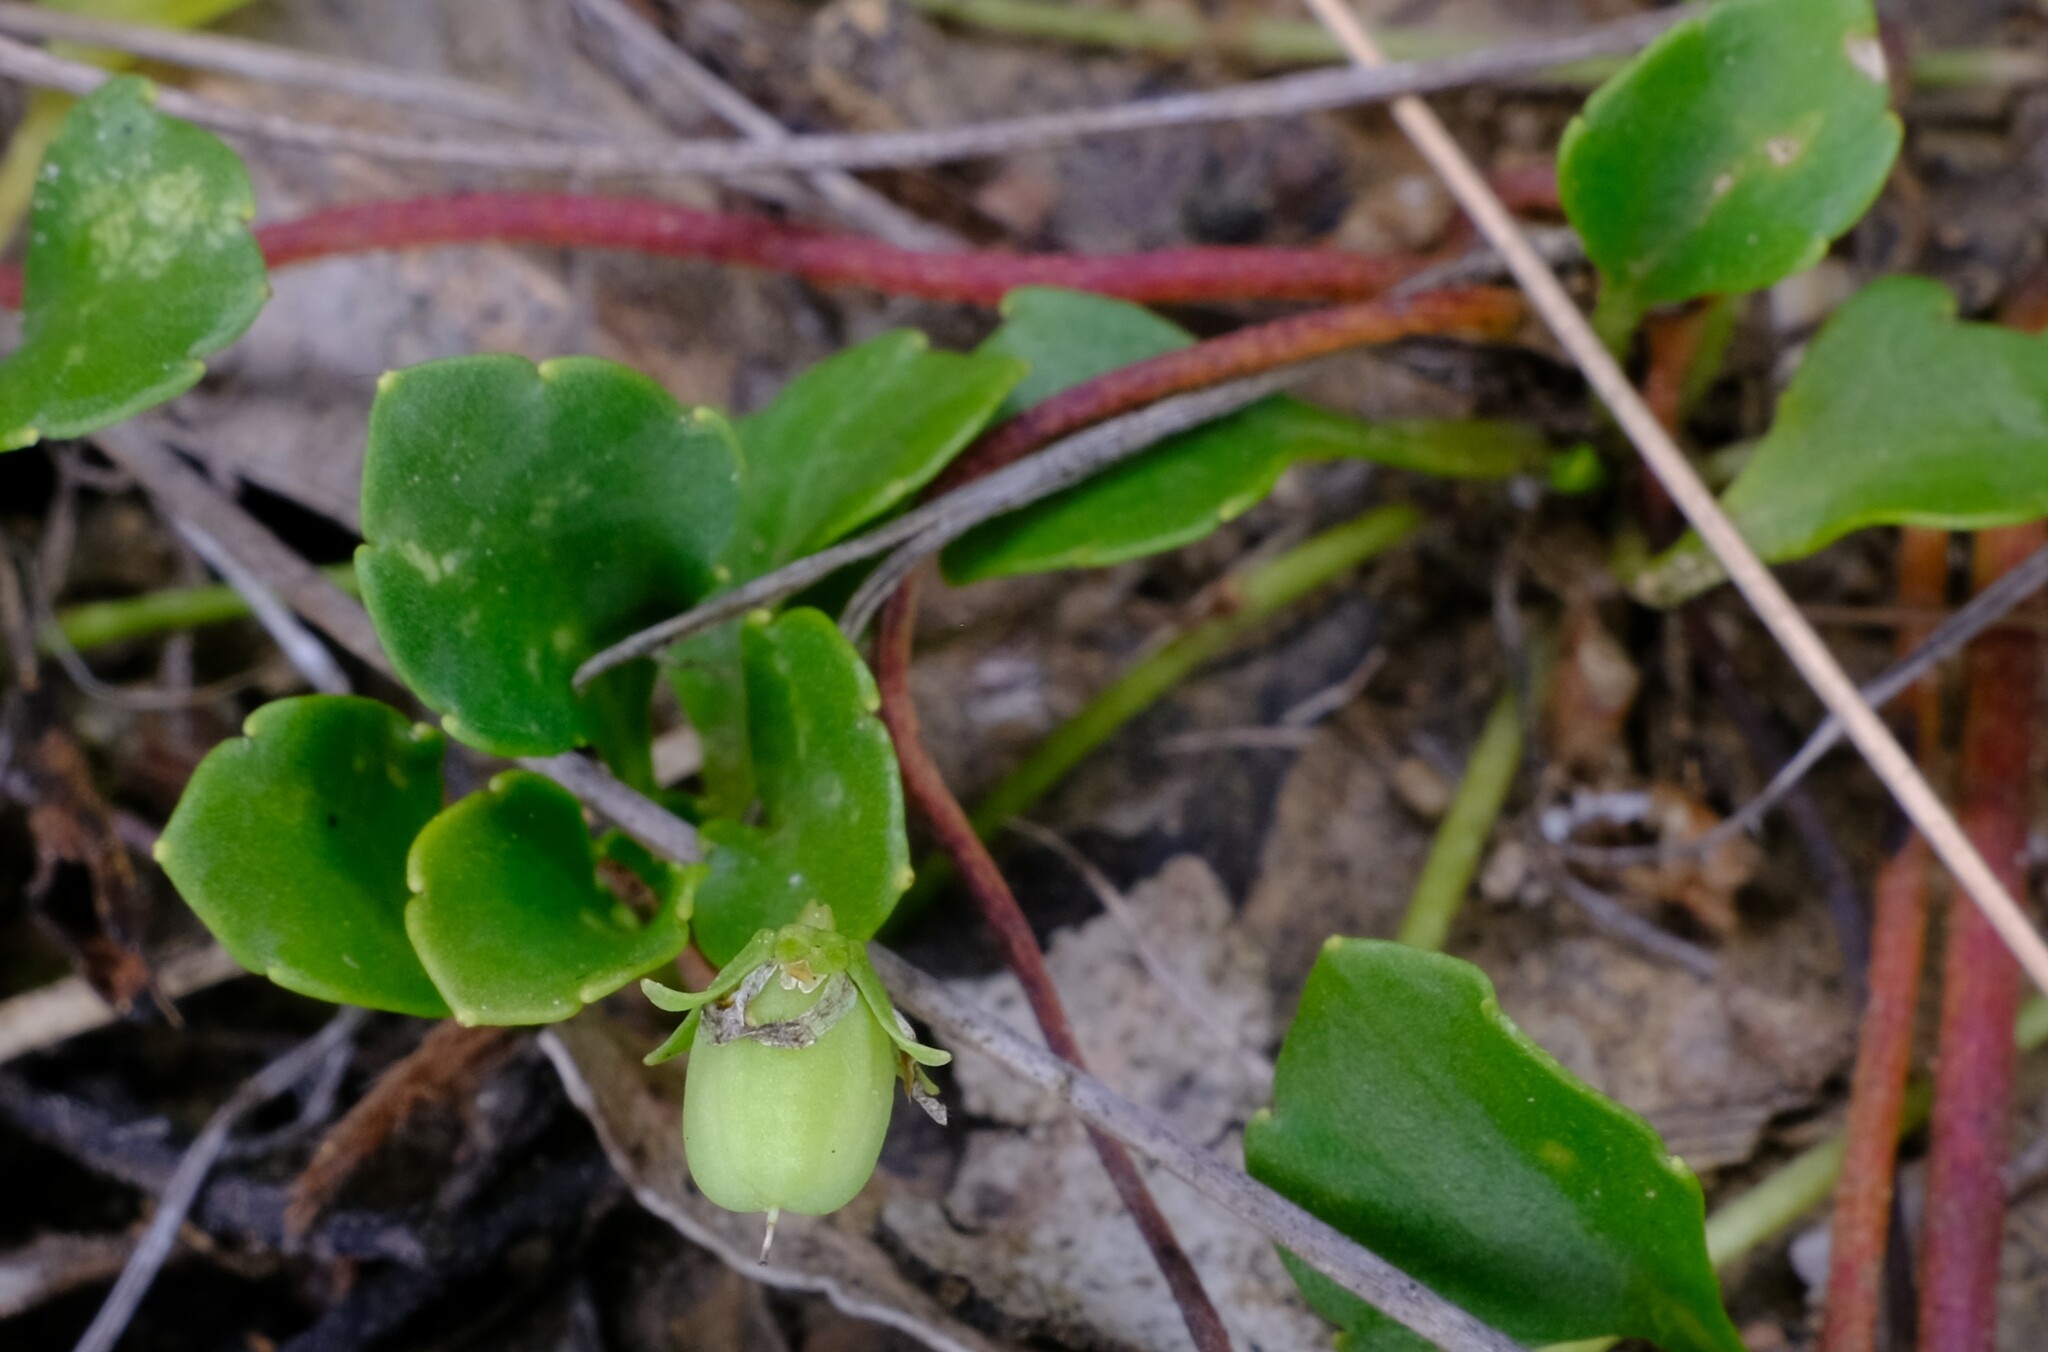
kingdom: Plantae
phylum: Tracheophyta
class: Magnoliopsida
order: Malpighiales
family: Violaceae
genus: Viola
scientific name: Viola cleistogamoides
